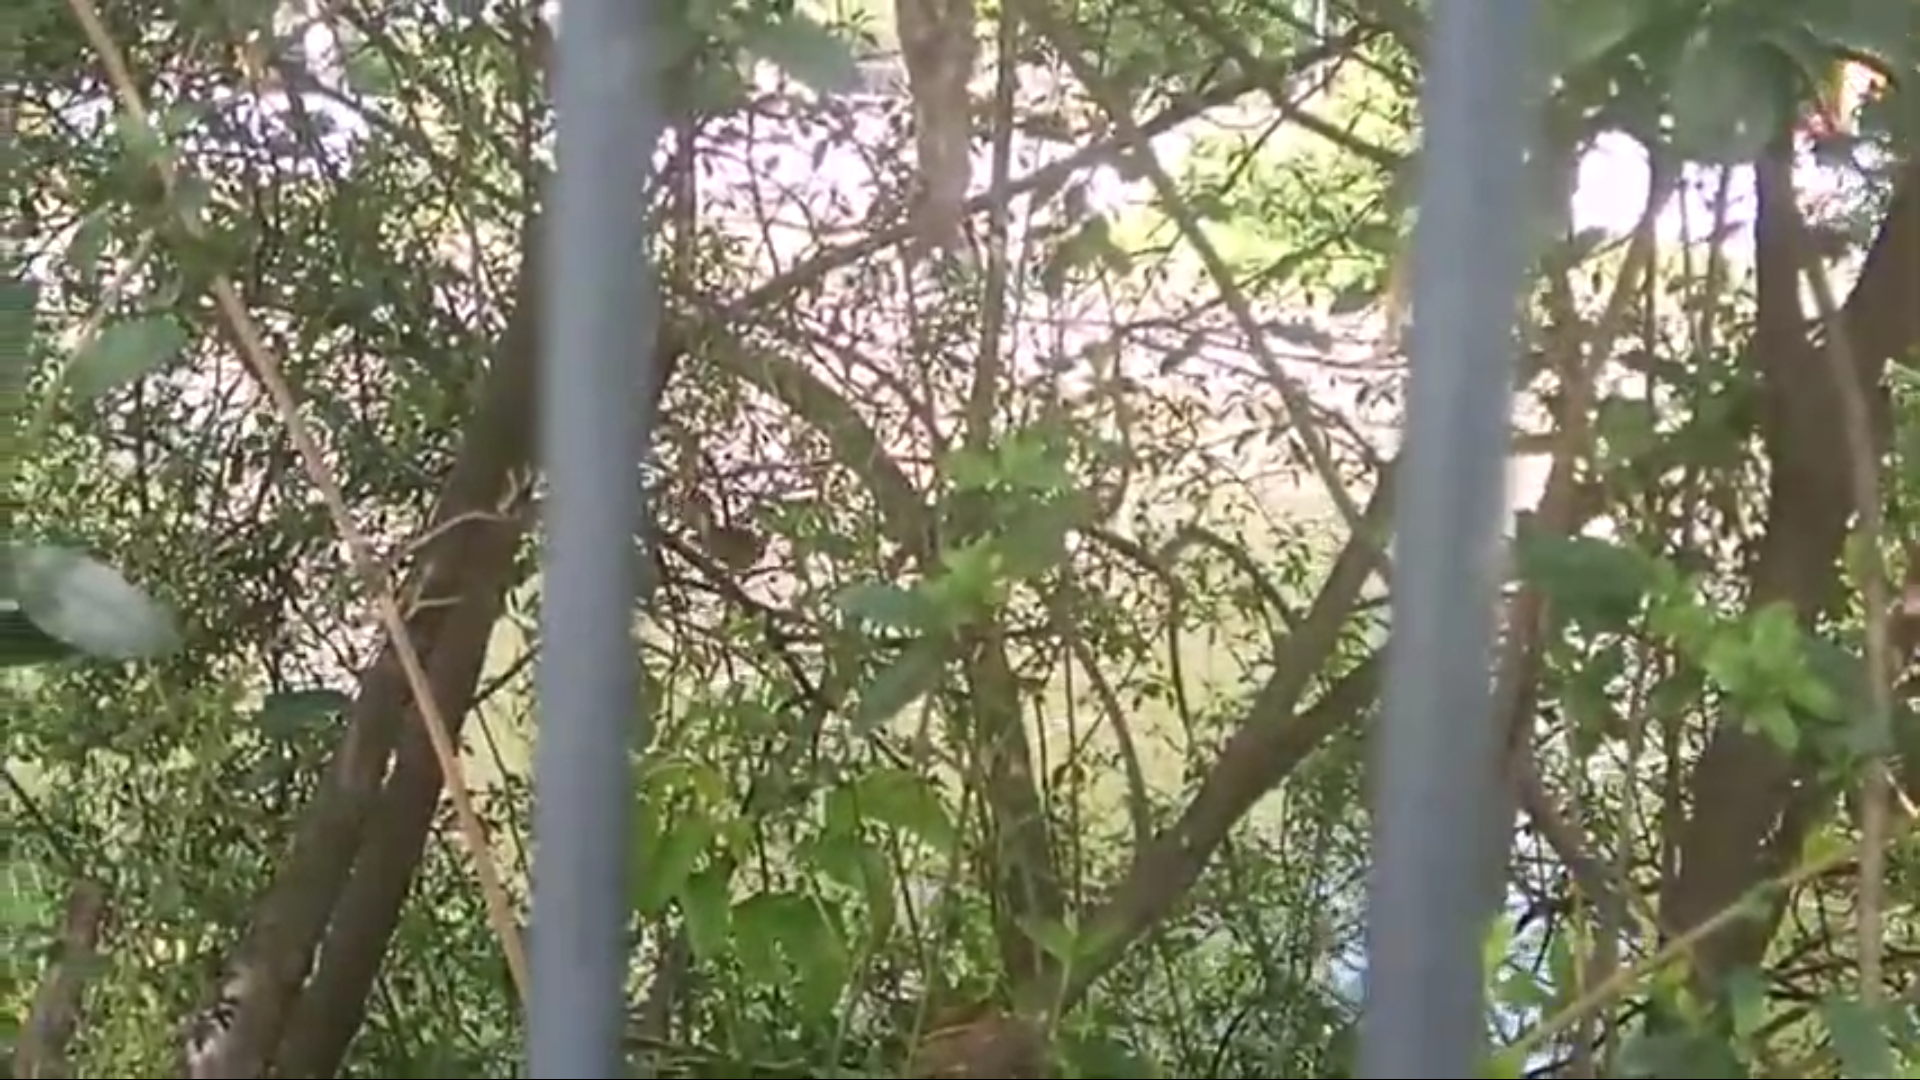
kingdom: Animalia
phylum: Chordata
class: Aves
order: Passeriformes
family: Passeridae
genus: Passer
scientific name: Passer domesticus
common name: House sparrow
